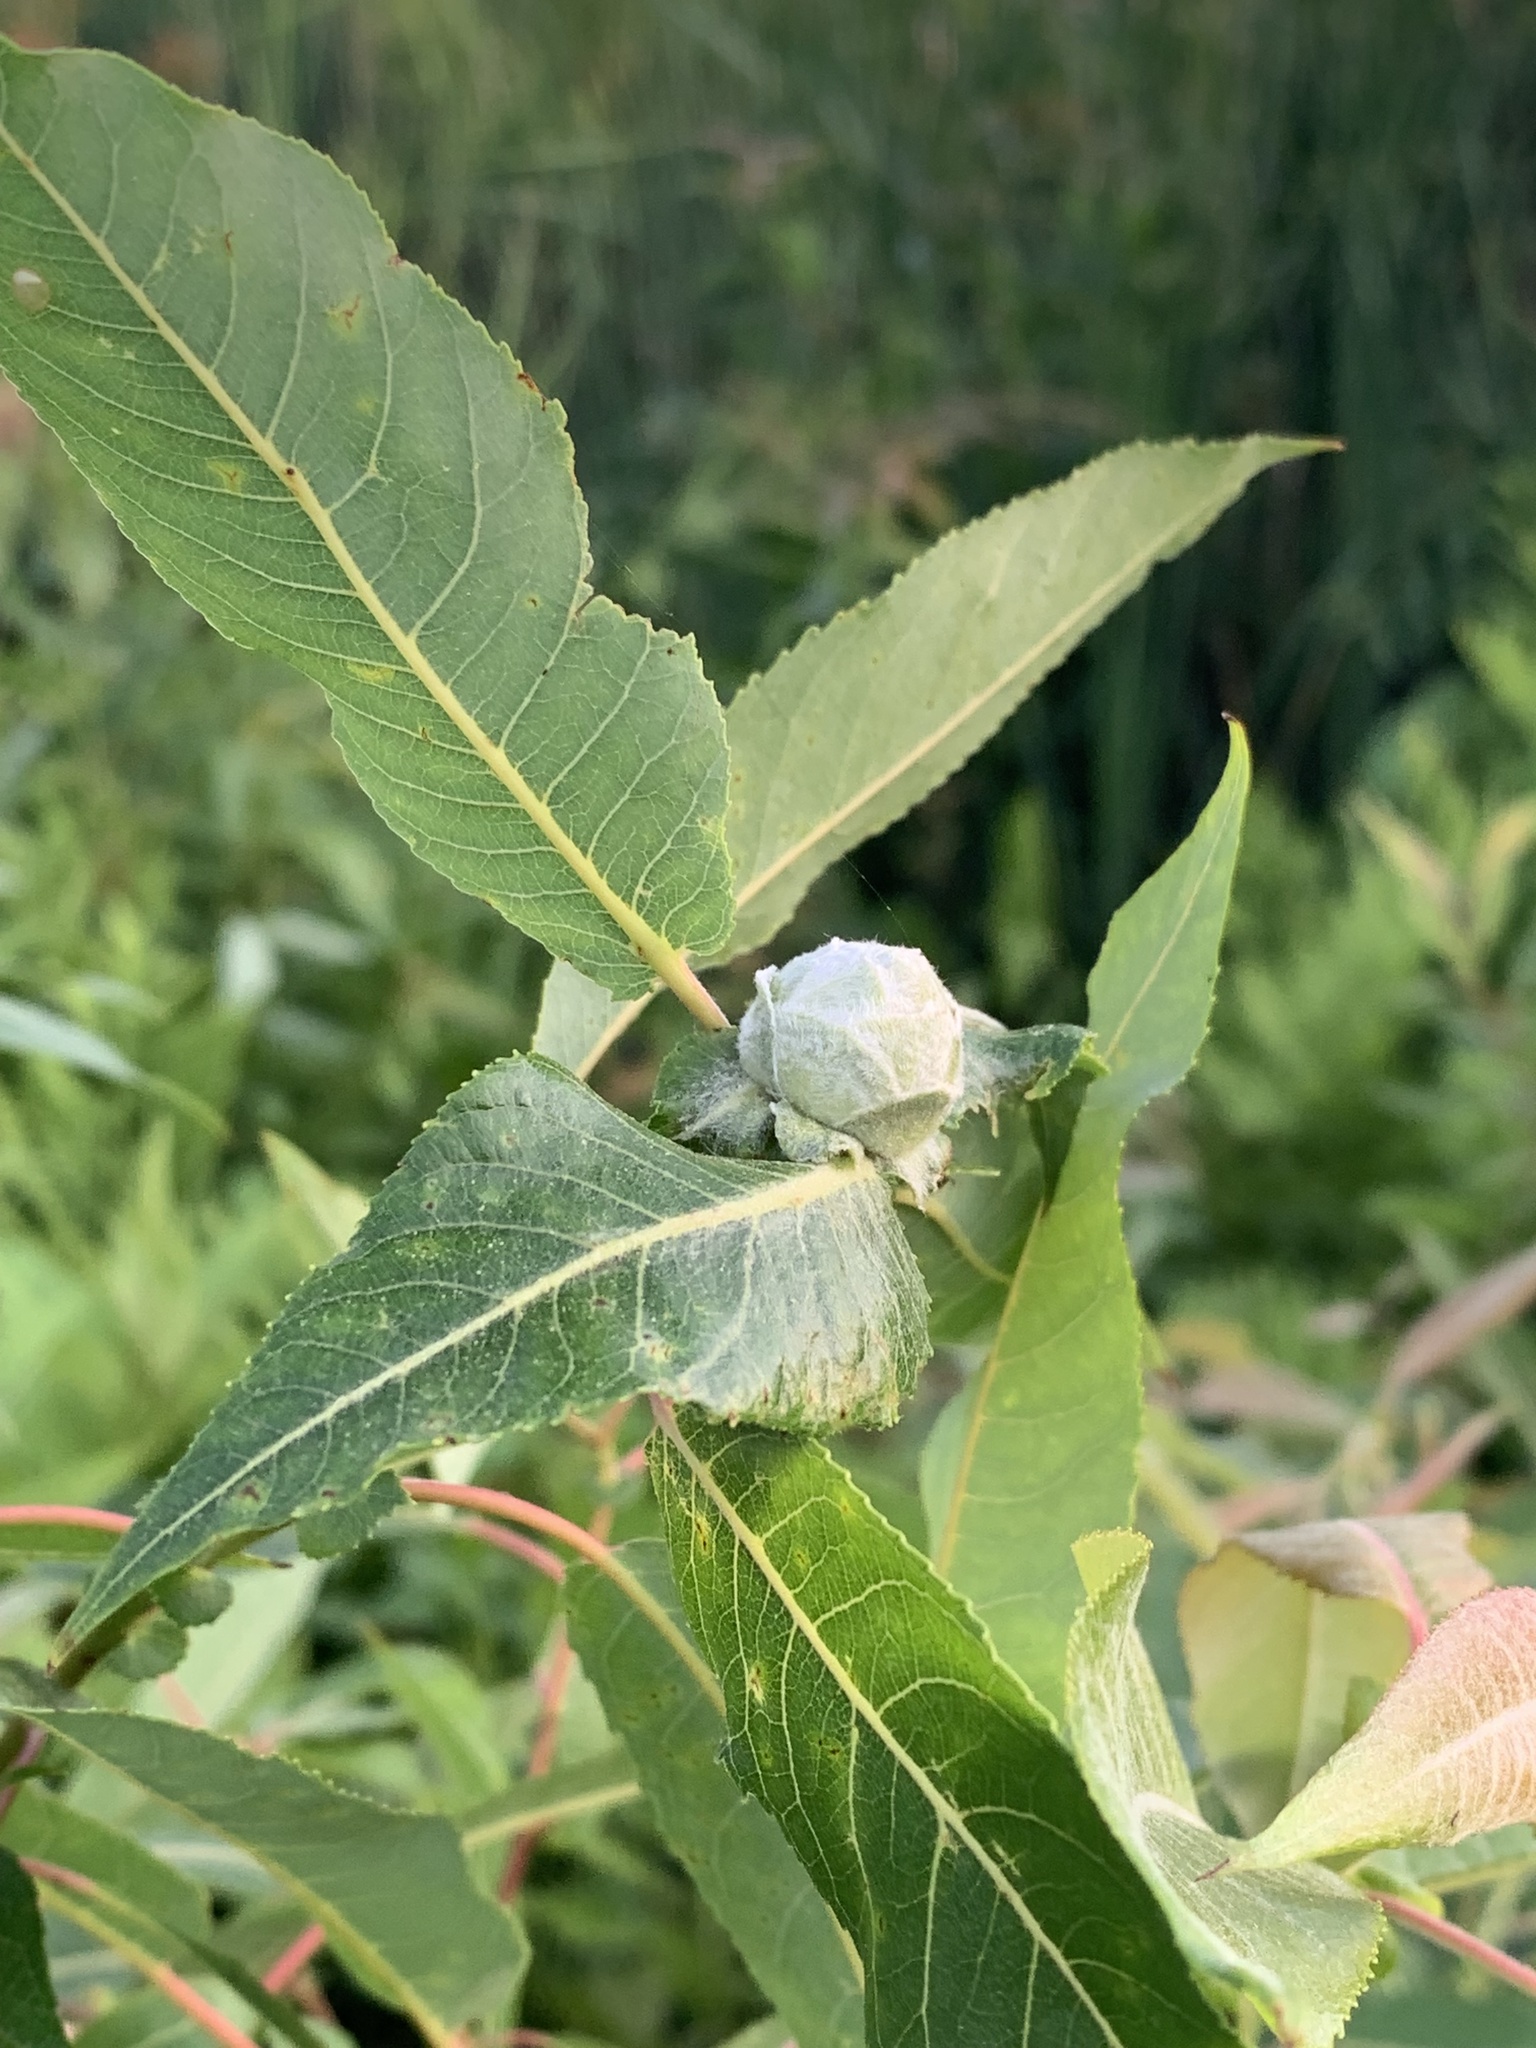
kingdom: Animalia
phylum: Arthropoda
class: Insecta
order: Diptera
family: Cecidomyiidae
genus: Rabdophaga
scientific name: Rabdophaga strobiloides
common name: Willow pinecone gall midge
